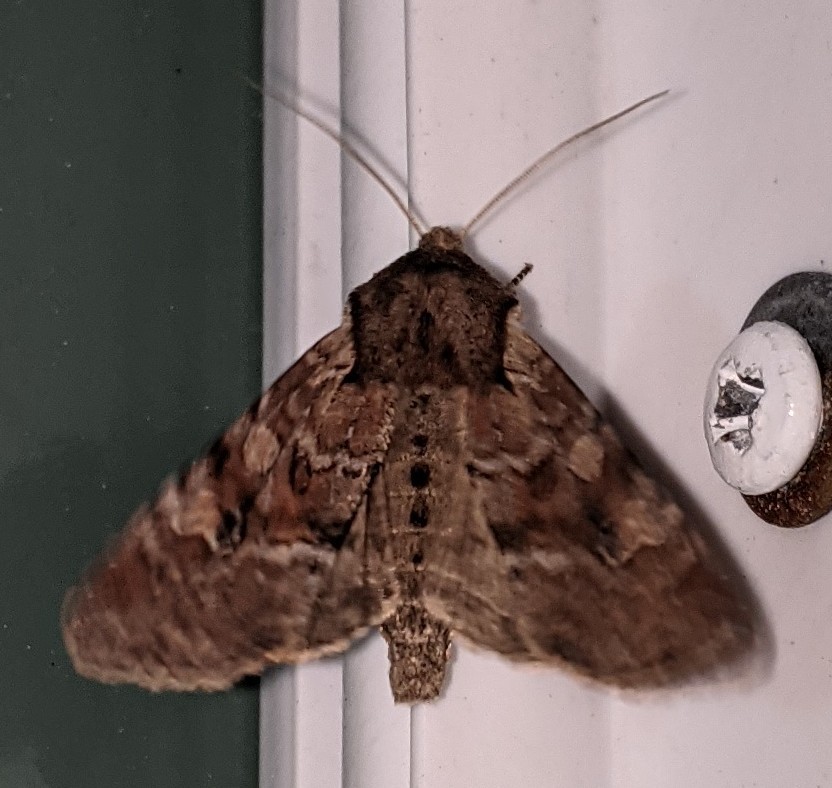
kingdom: Animalia
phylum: Arthropoda
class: Insecta
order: Lepidoptera
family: Noctuidae
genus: Apamea
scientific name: Apamea sordens
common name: Rustic shoulder-knot
